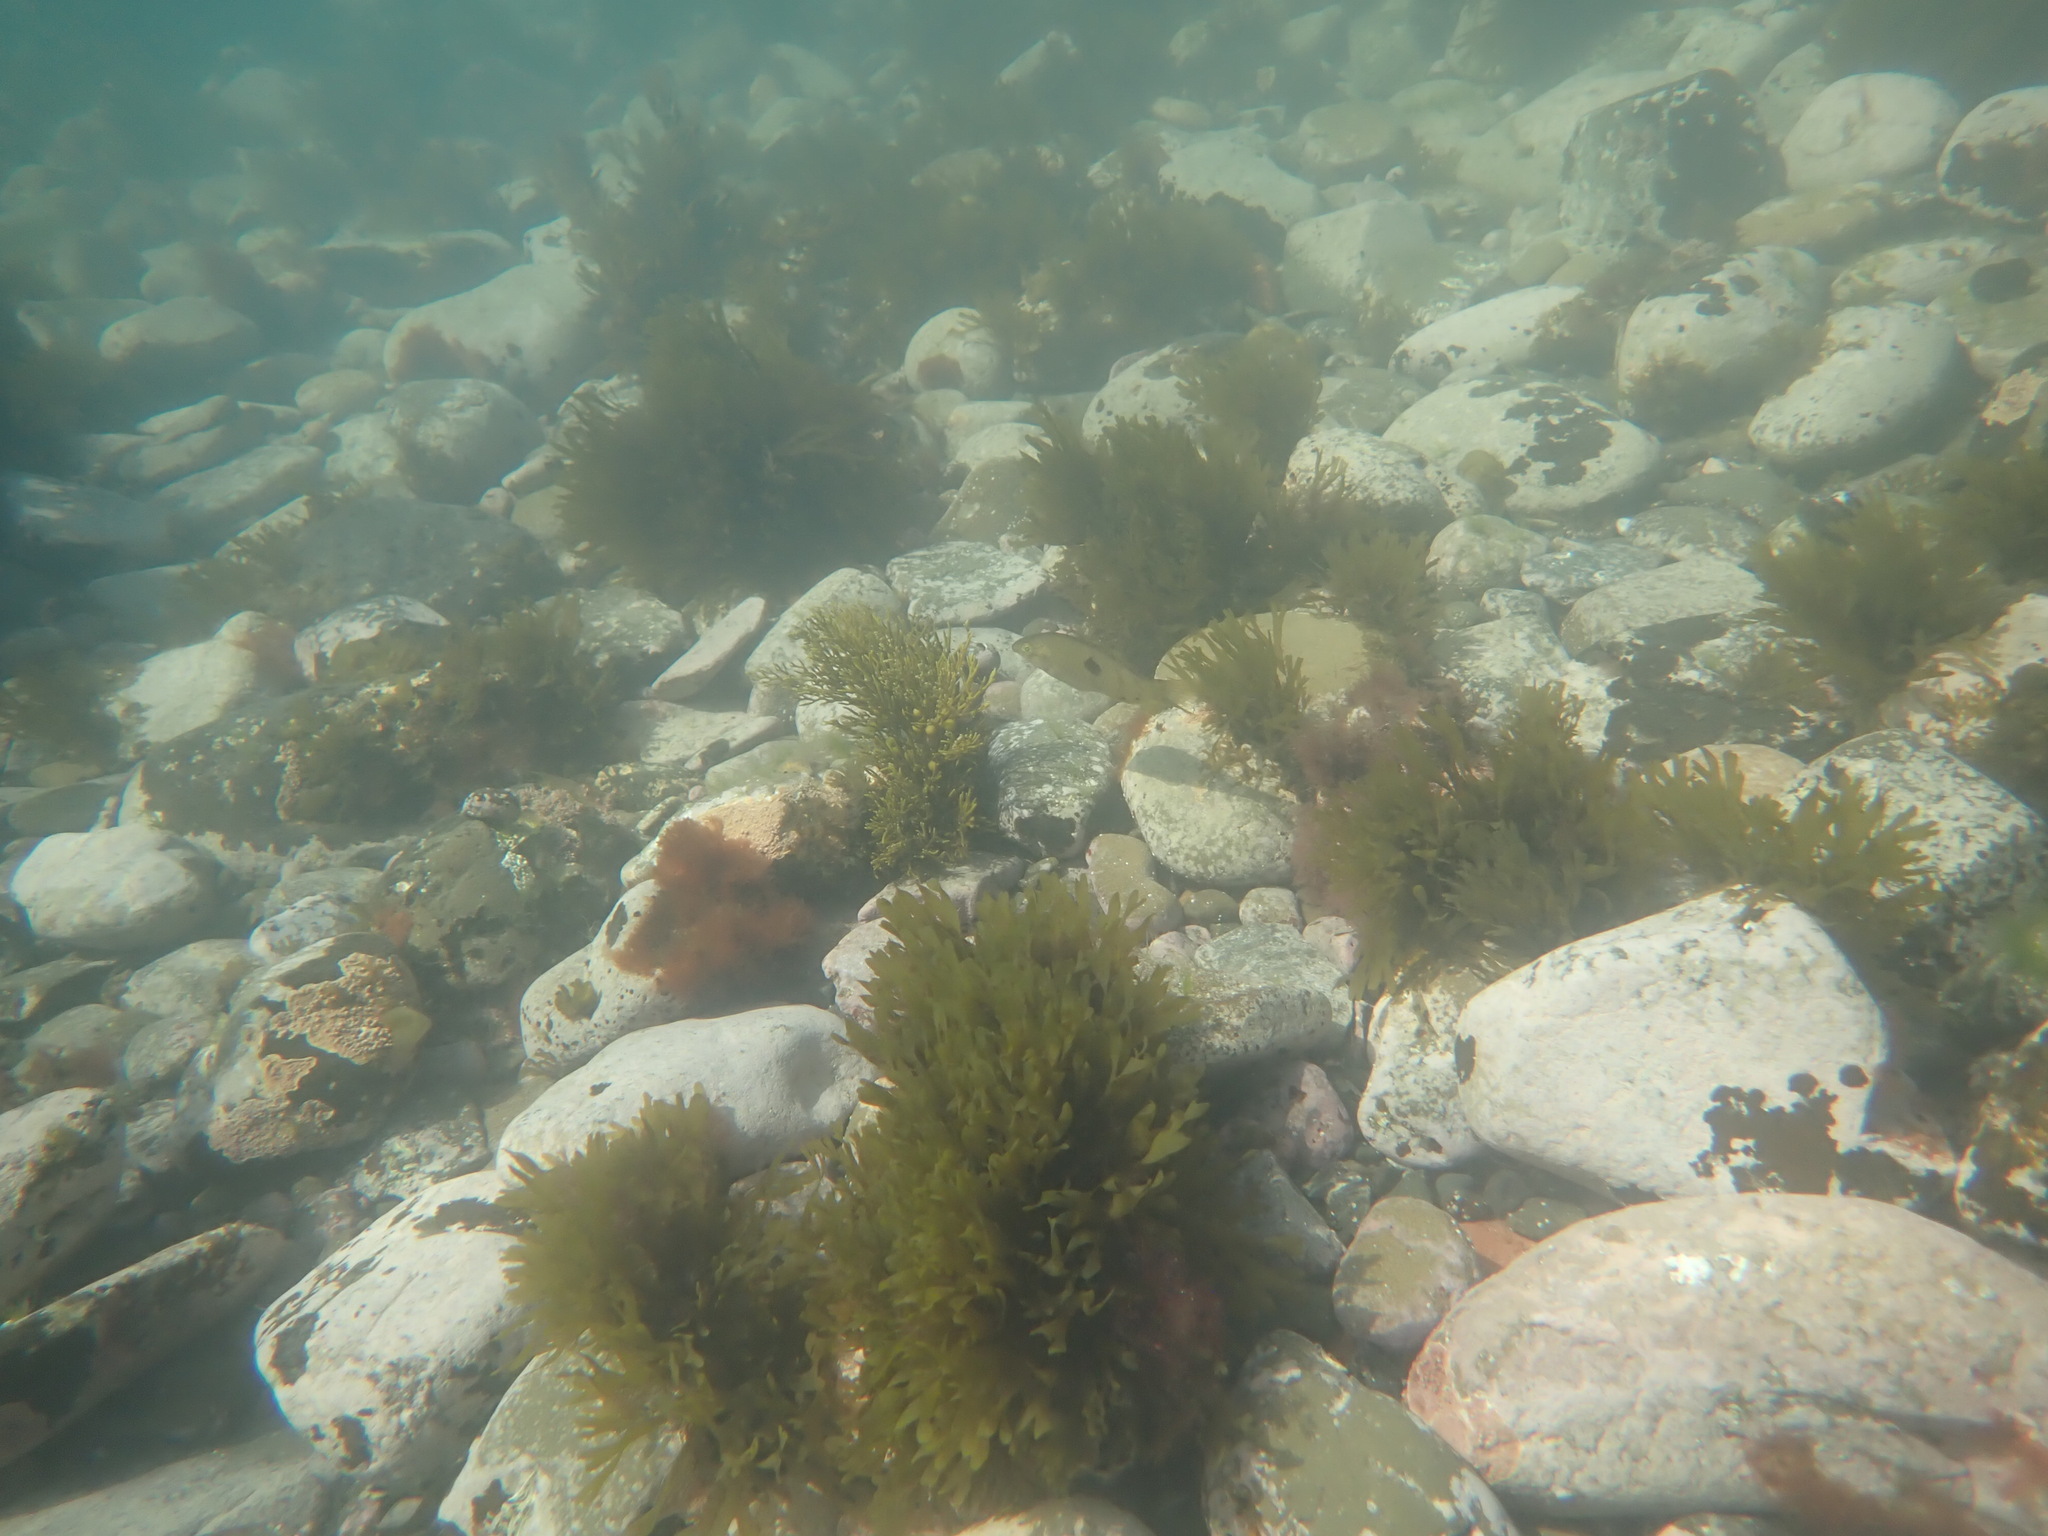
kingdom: Animalia
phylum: Chordata
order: Perciformes
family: Labridae
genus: Notolabrus
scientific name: Notolabrus celidotus
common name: Spotty
